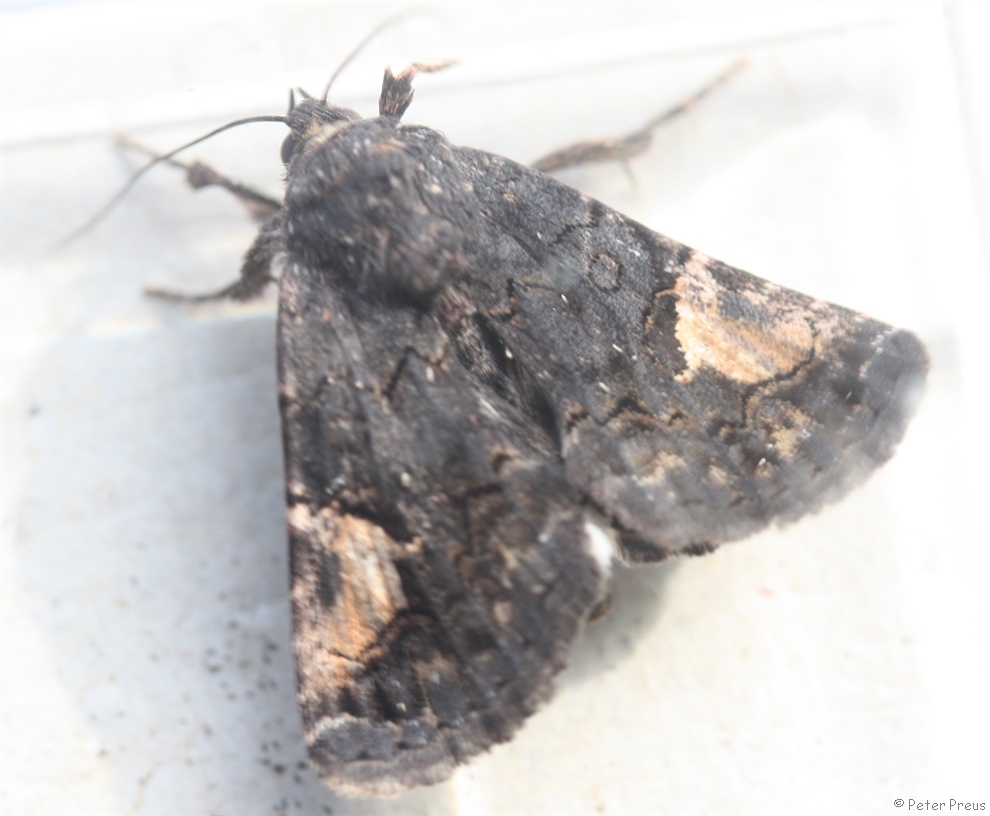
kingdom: Animalia
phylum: Arthropoda
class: Insecta
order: Lepidoptera
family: Noctuidae
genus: Aedia
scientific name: Aedia funesta
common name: The druid
